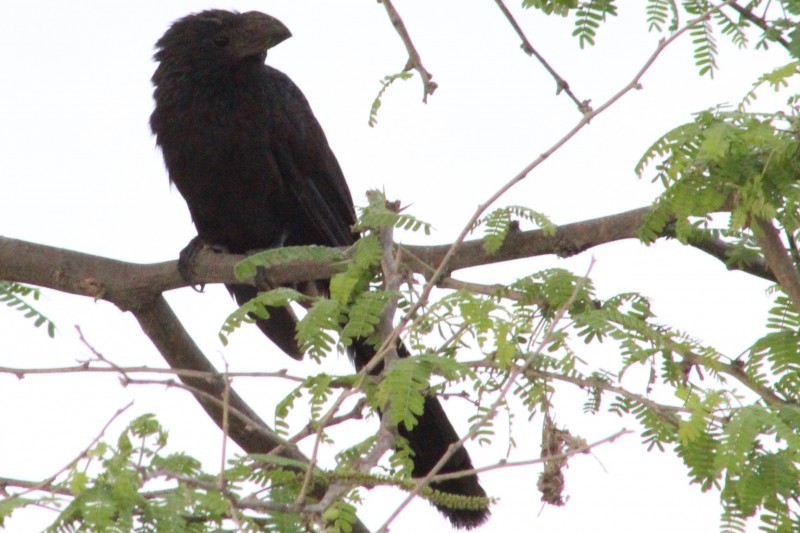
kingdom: Animalia
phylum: Chordata
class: Aves
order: Cuculiformes
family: Cuculidae
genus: Crotophaga
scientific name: Crotophaga sulcirostris
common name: Groove-billed ani
